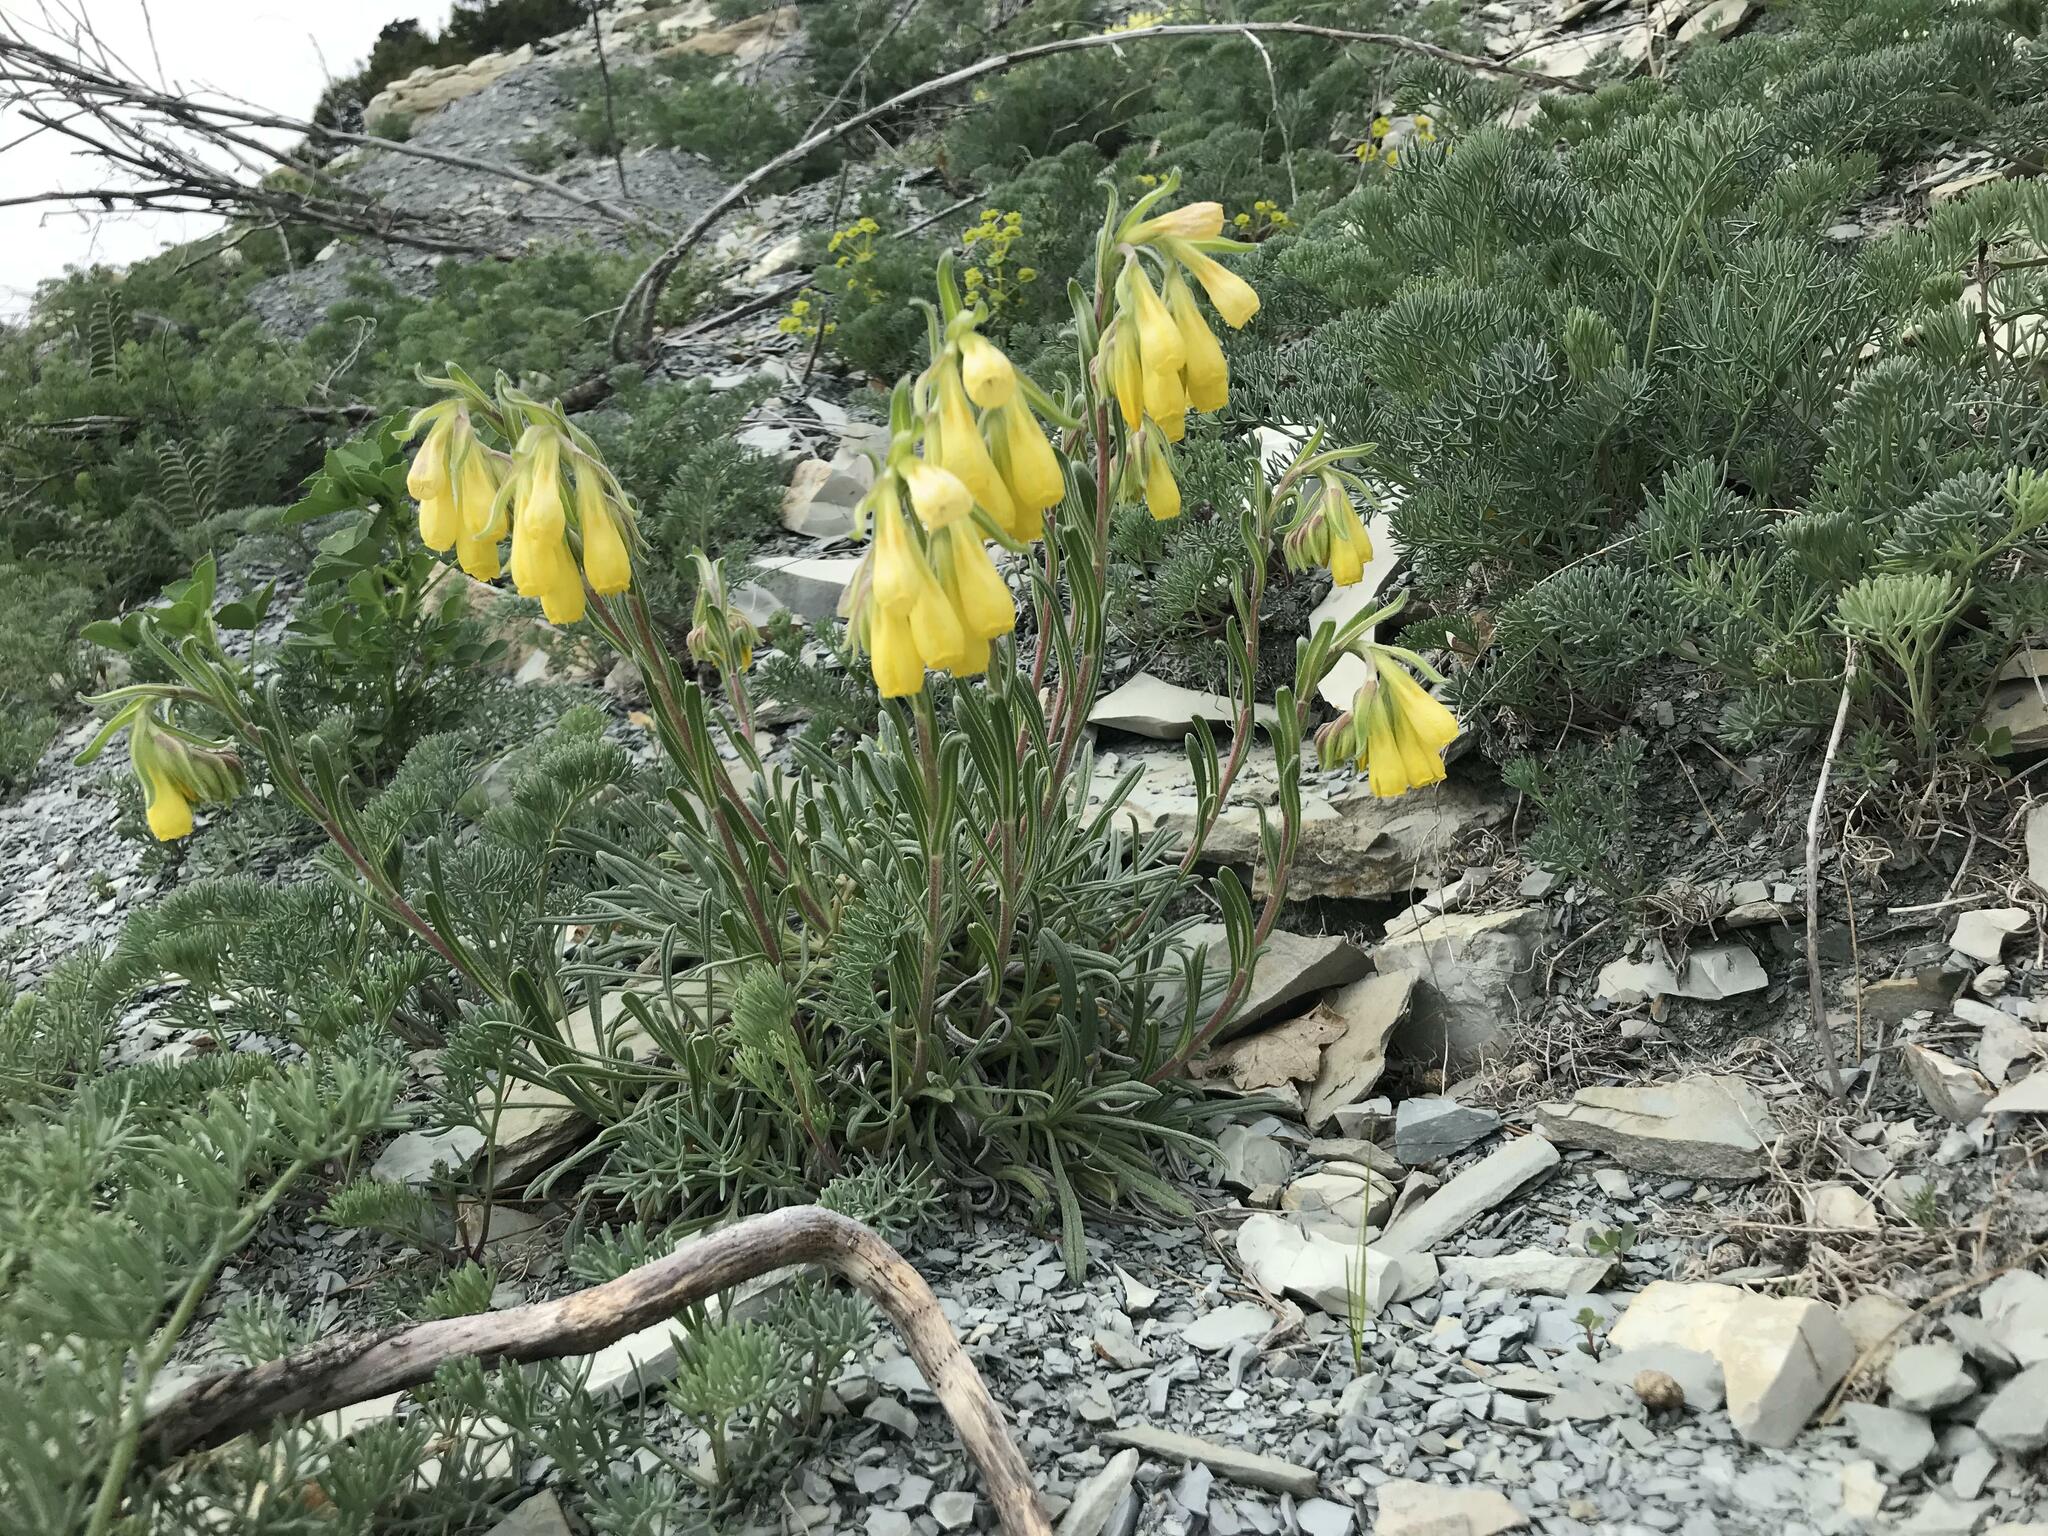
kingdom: Plantae
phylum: Tracheophyta
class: Magnoliopsida
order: Boraginales
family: Boraginaceae
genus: Onosma
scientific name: Onosma taurica
